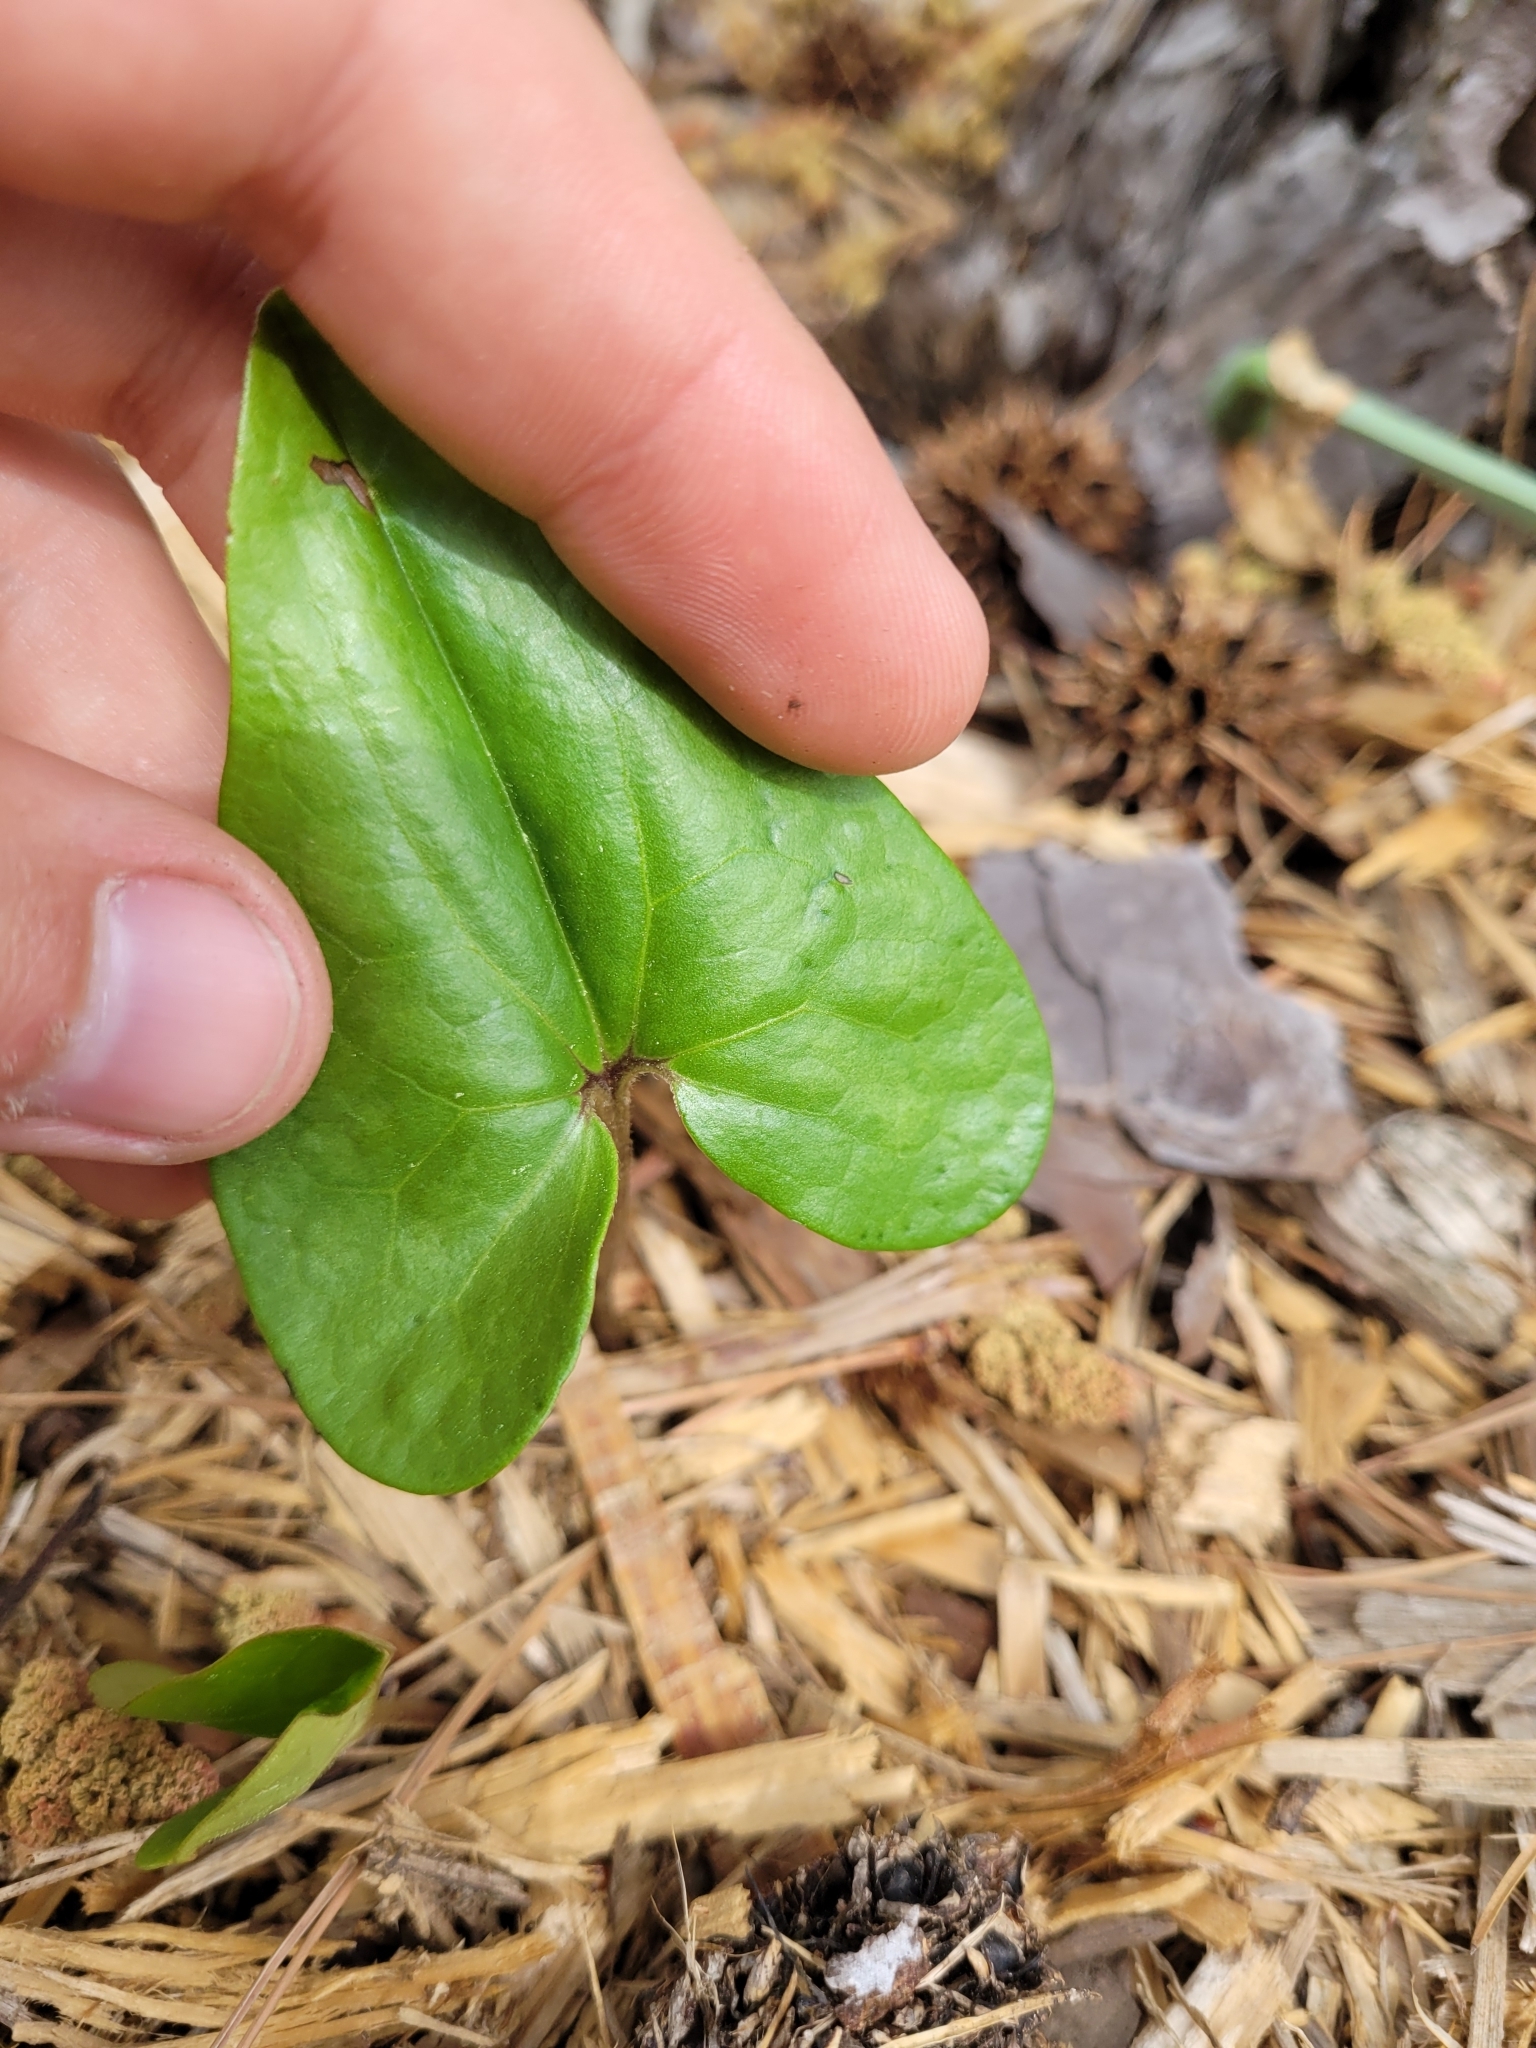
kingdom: Plantae
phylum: Tracheophyta
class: Magnoliopsida
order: Piperales
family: Aristolochiaceae
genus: Hexastylis
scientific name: Hexastylis arifolia
